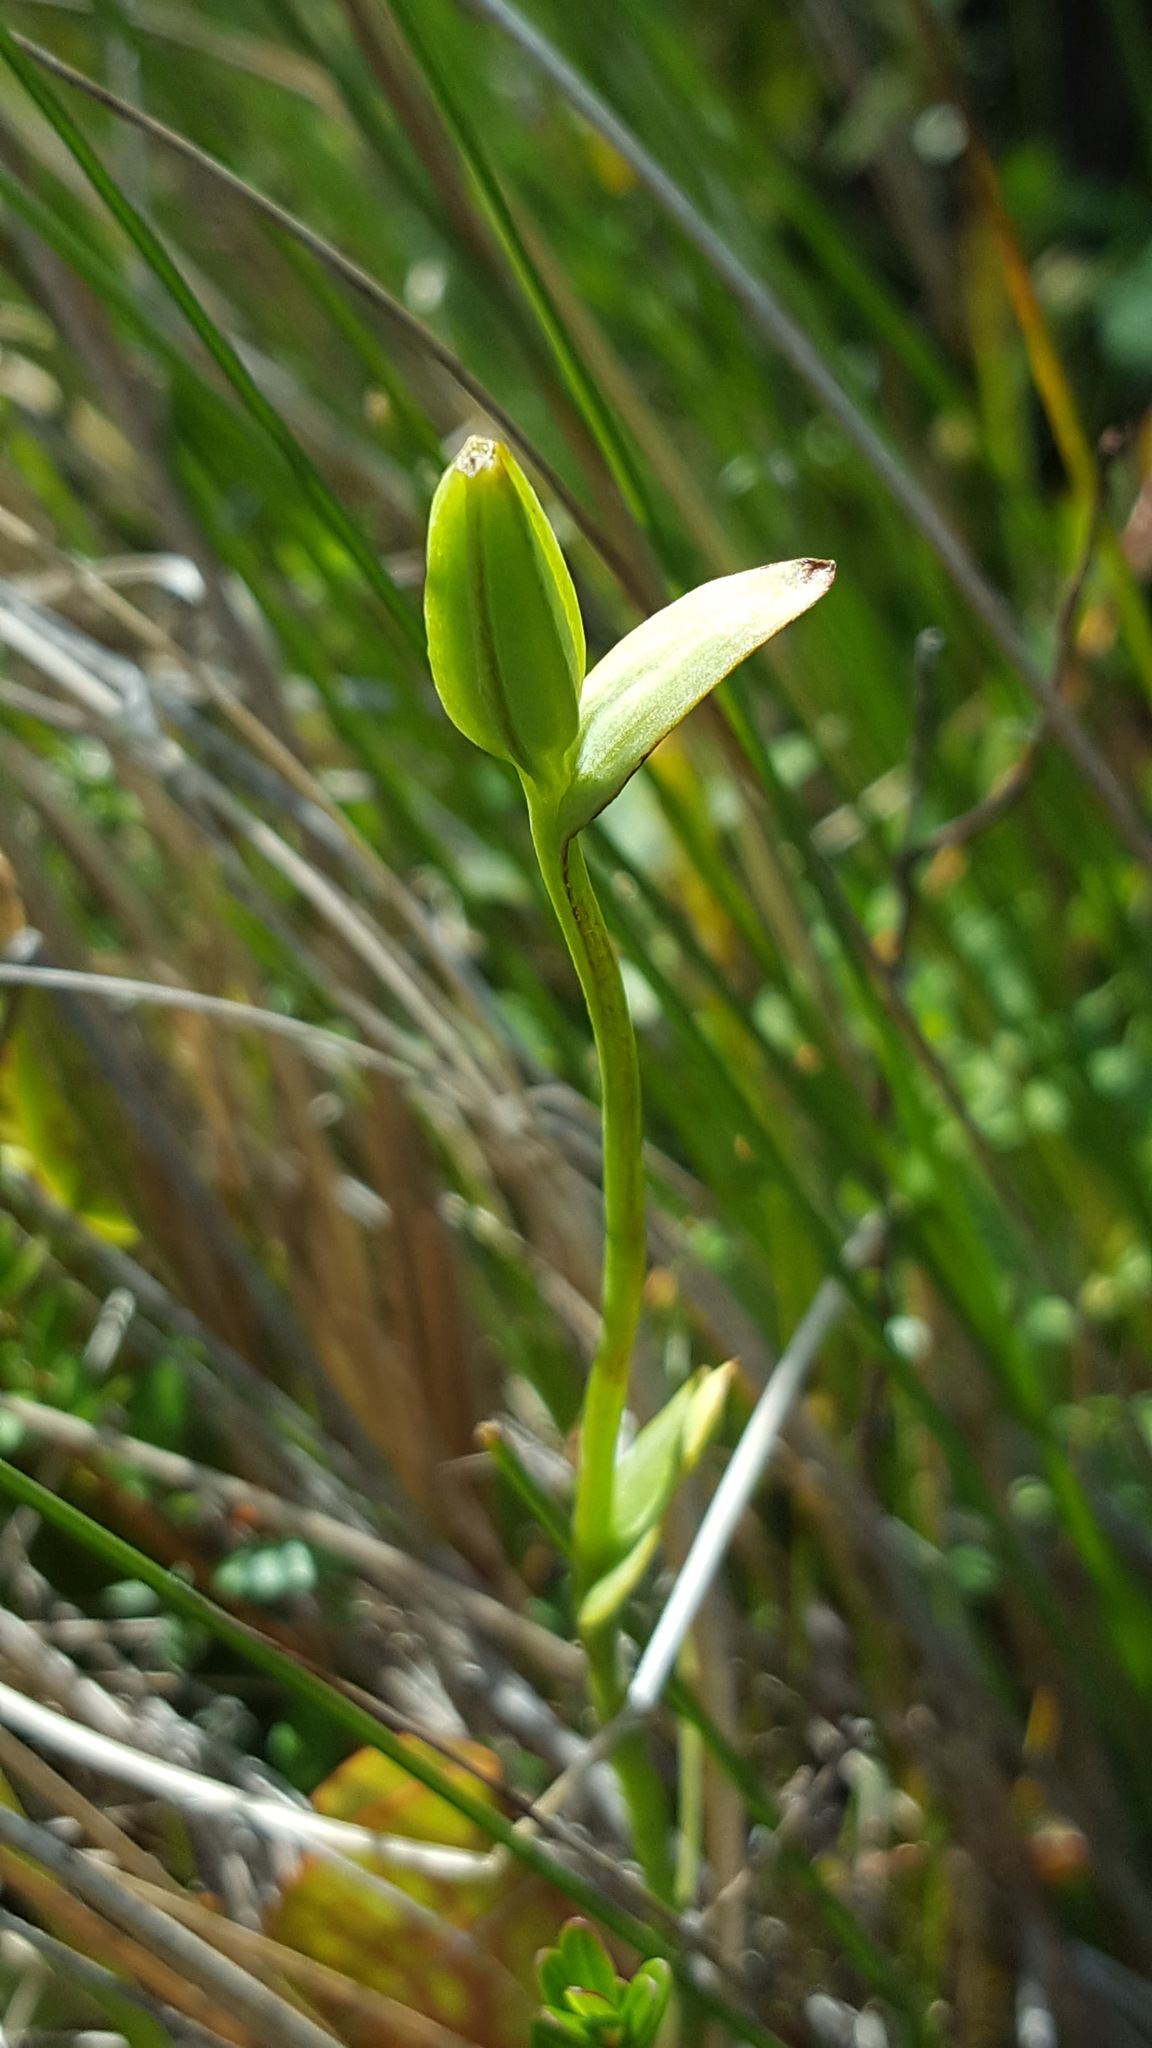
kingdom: Plantae
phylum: Tracheophyta
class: Liliopsida
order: Asparagales
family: Orchidaceae
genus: Pogonia
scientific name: Pogonia ophioglossoides
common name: Rose pogonia
